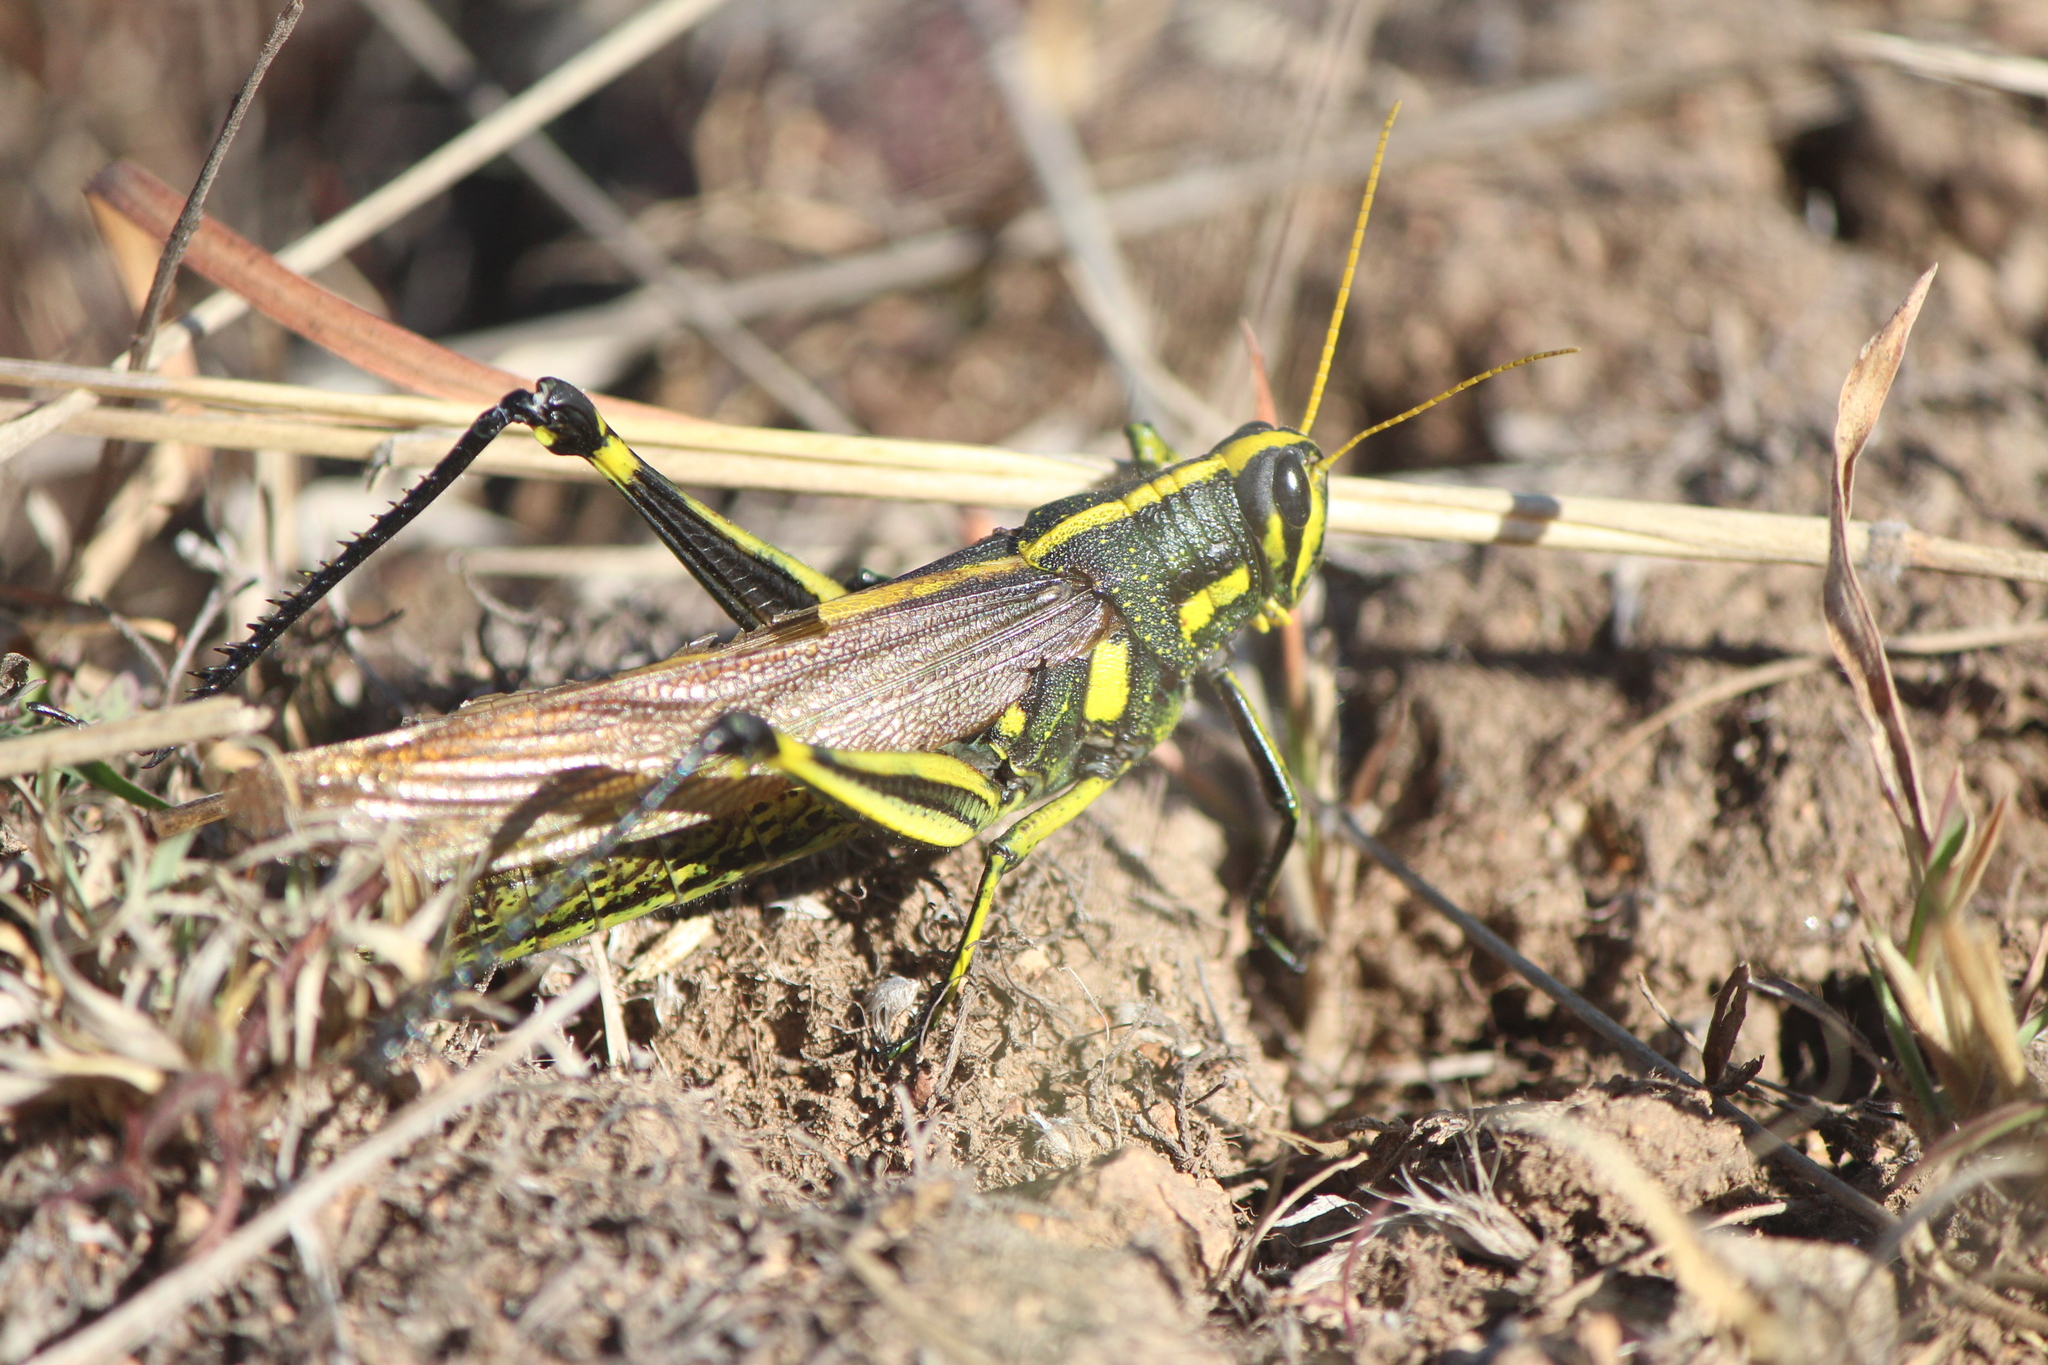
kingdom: Animalia
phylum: Arthropoda
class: Insecta
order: Orthoptera
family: Acrididae
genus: Schistocerca
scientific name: Schistocerca albolineata
